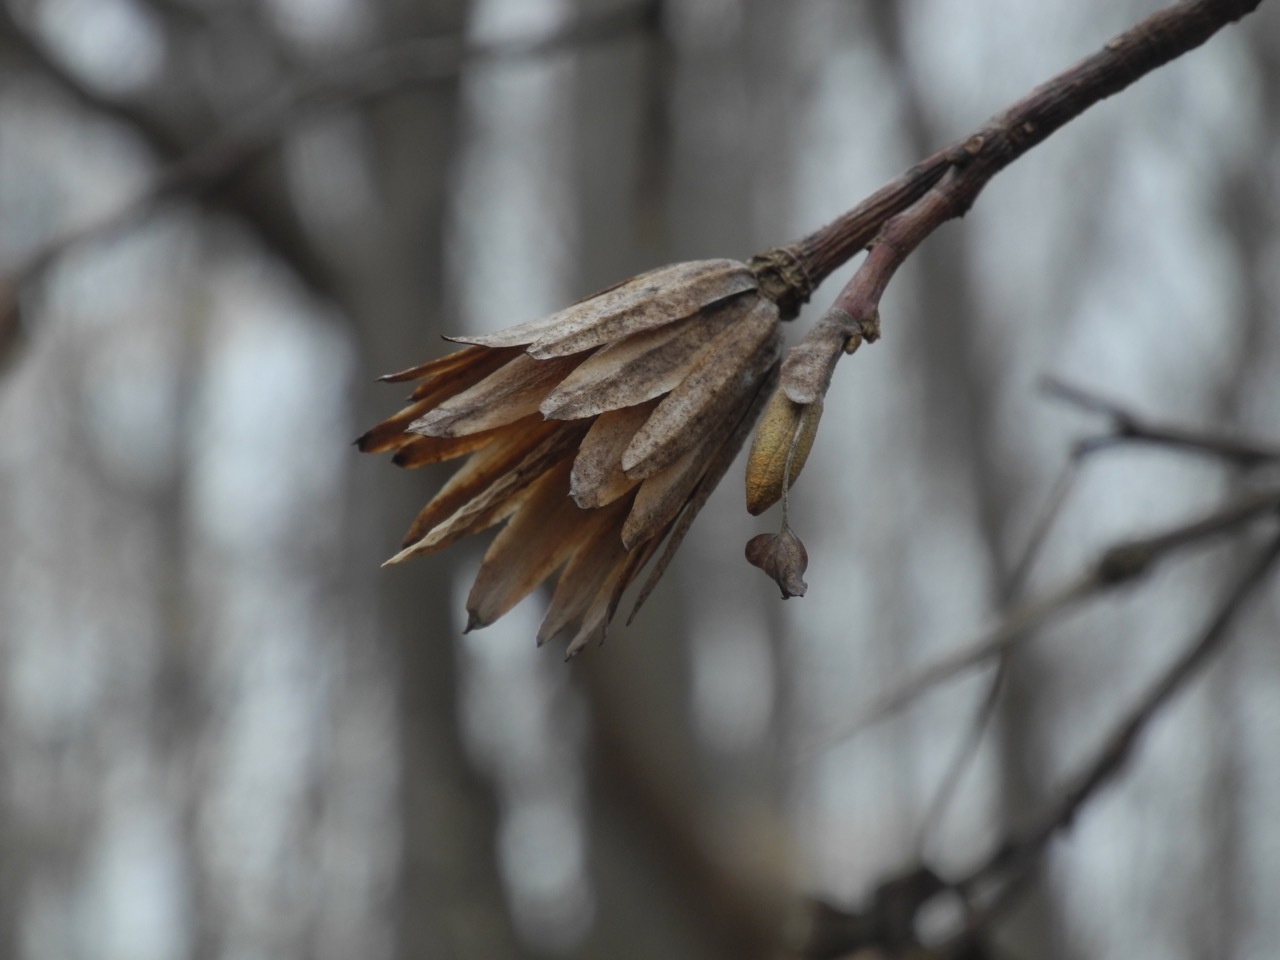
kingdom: Plantae
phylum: Tracheophyta
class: Magnoliopsida
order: Magnoliales
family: Magnoliaceae
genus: Liriodendron
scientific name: Liriodendron tulipifera
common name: Tulip tree
